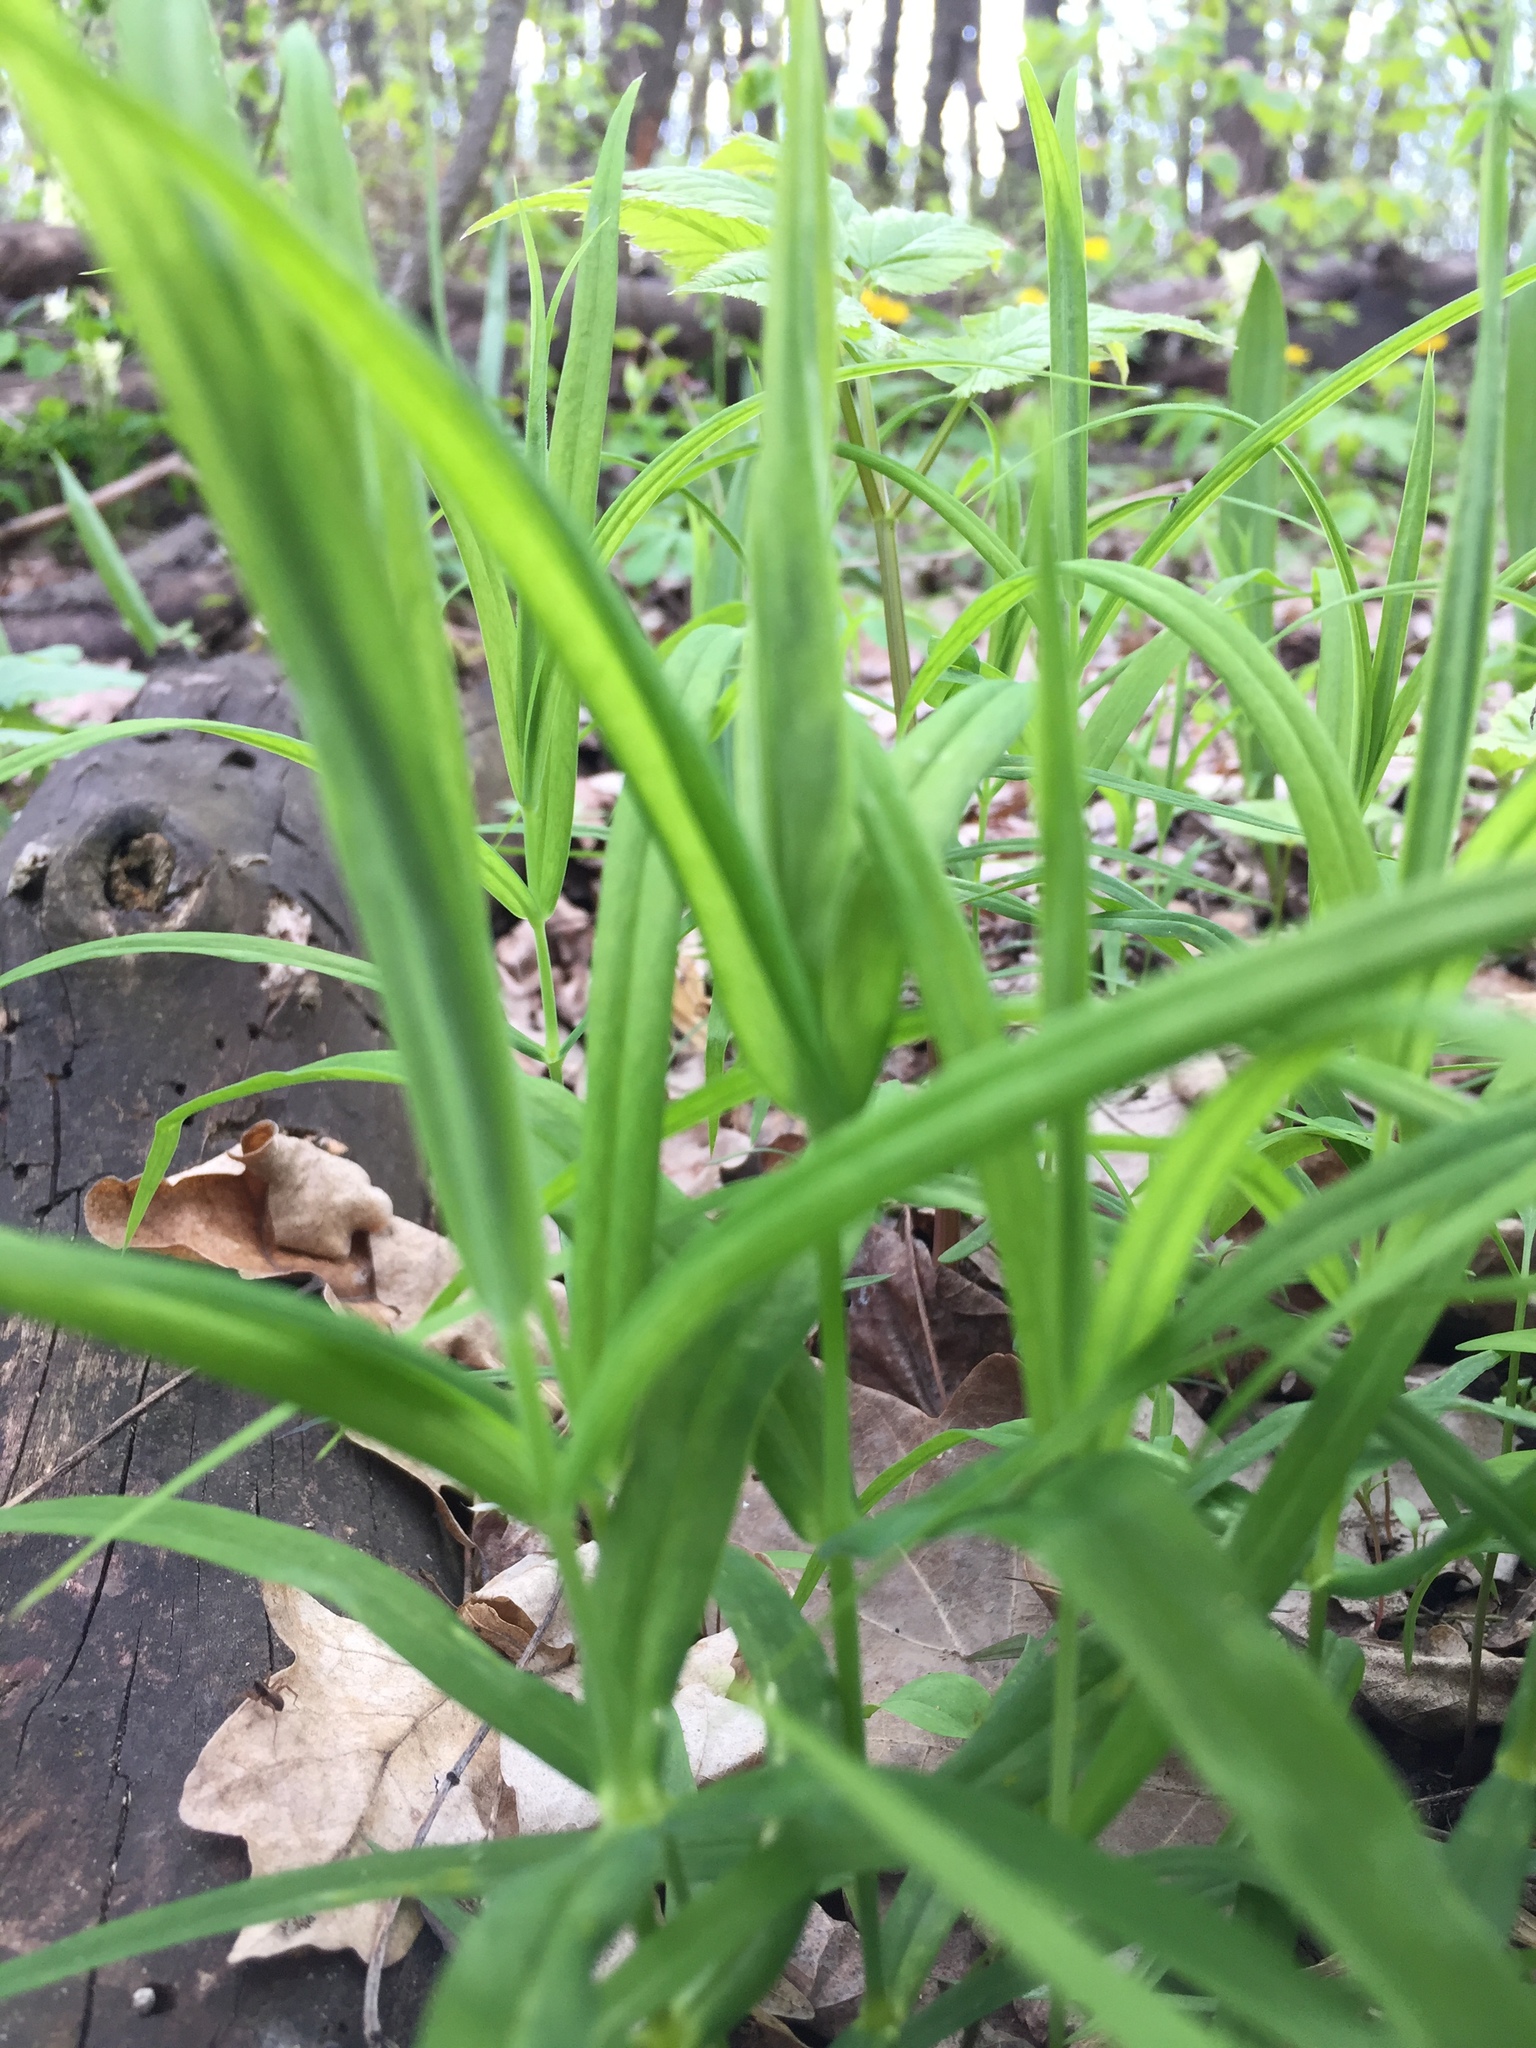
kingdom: Plantae
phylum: Tracheophyta
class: Magnoliopsida
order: Caryophyllales
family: Caryophyllaceae
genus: Rabelera
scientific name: Rabelera holostea
